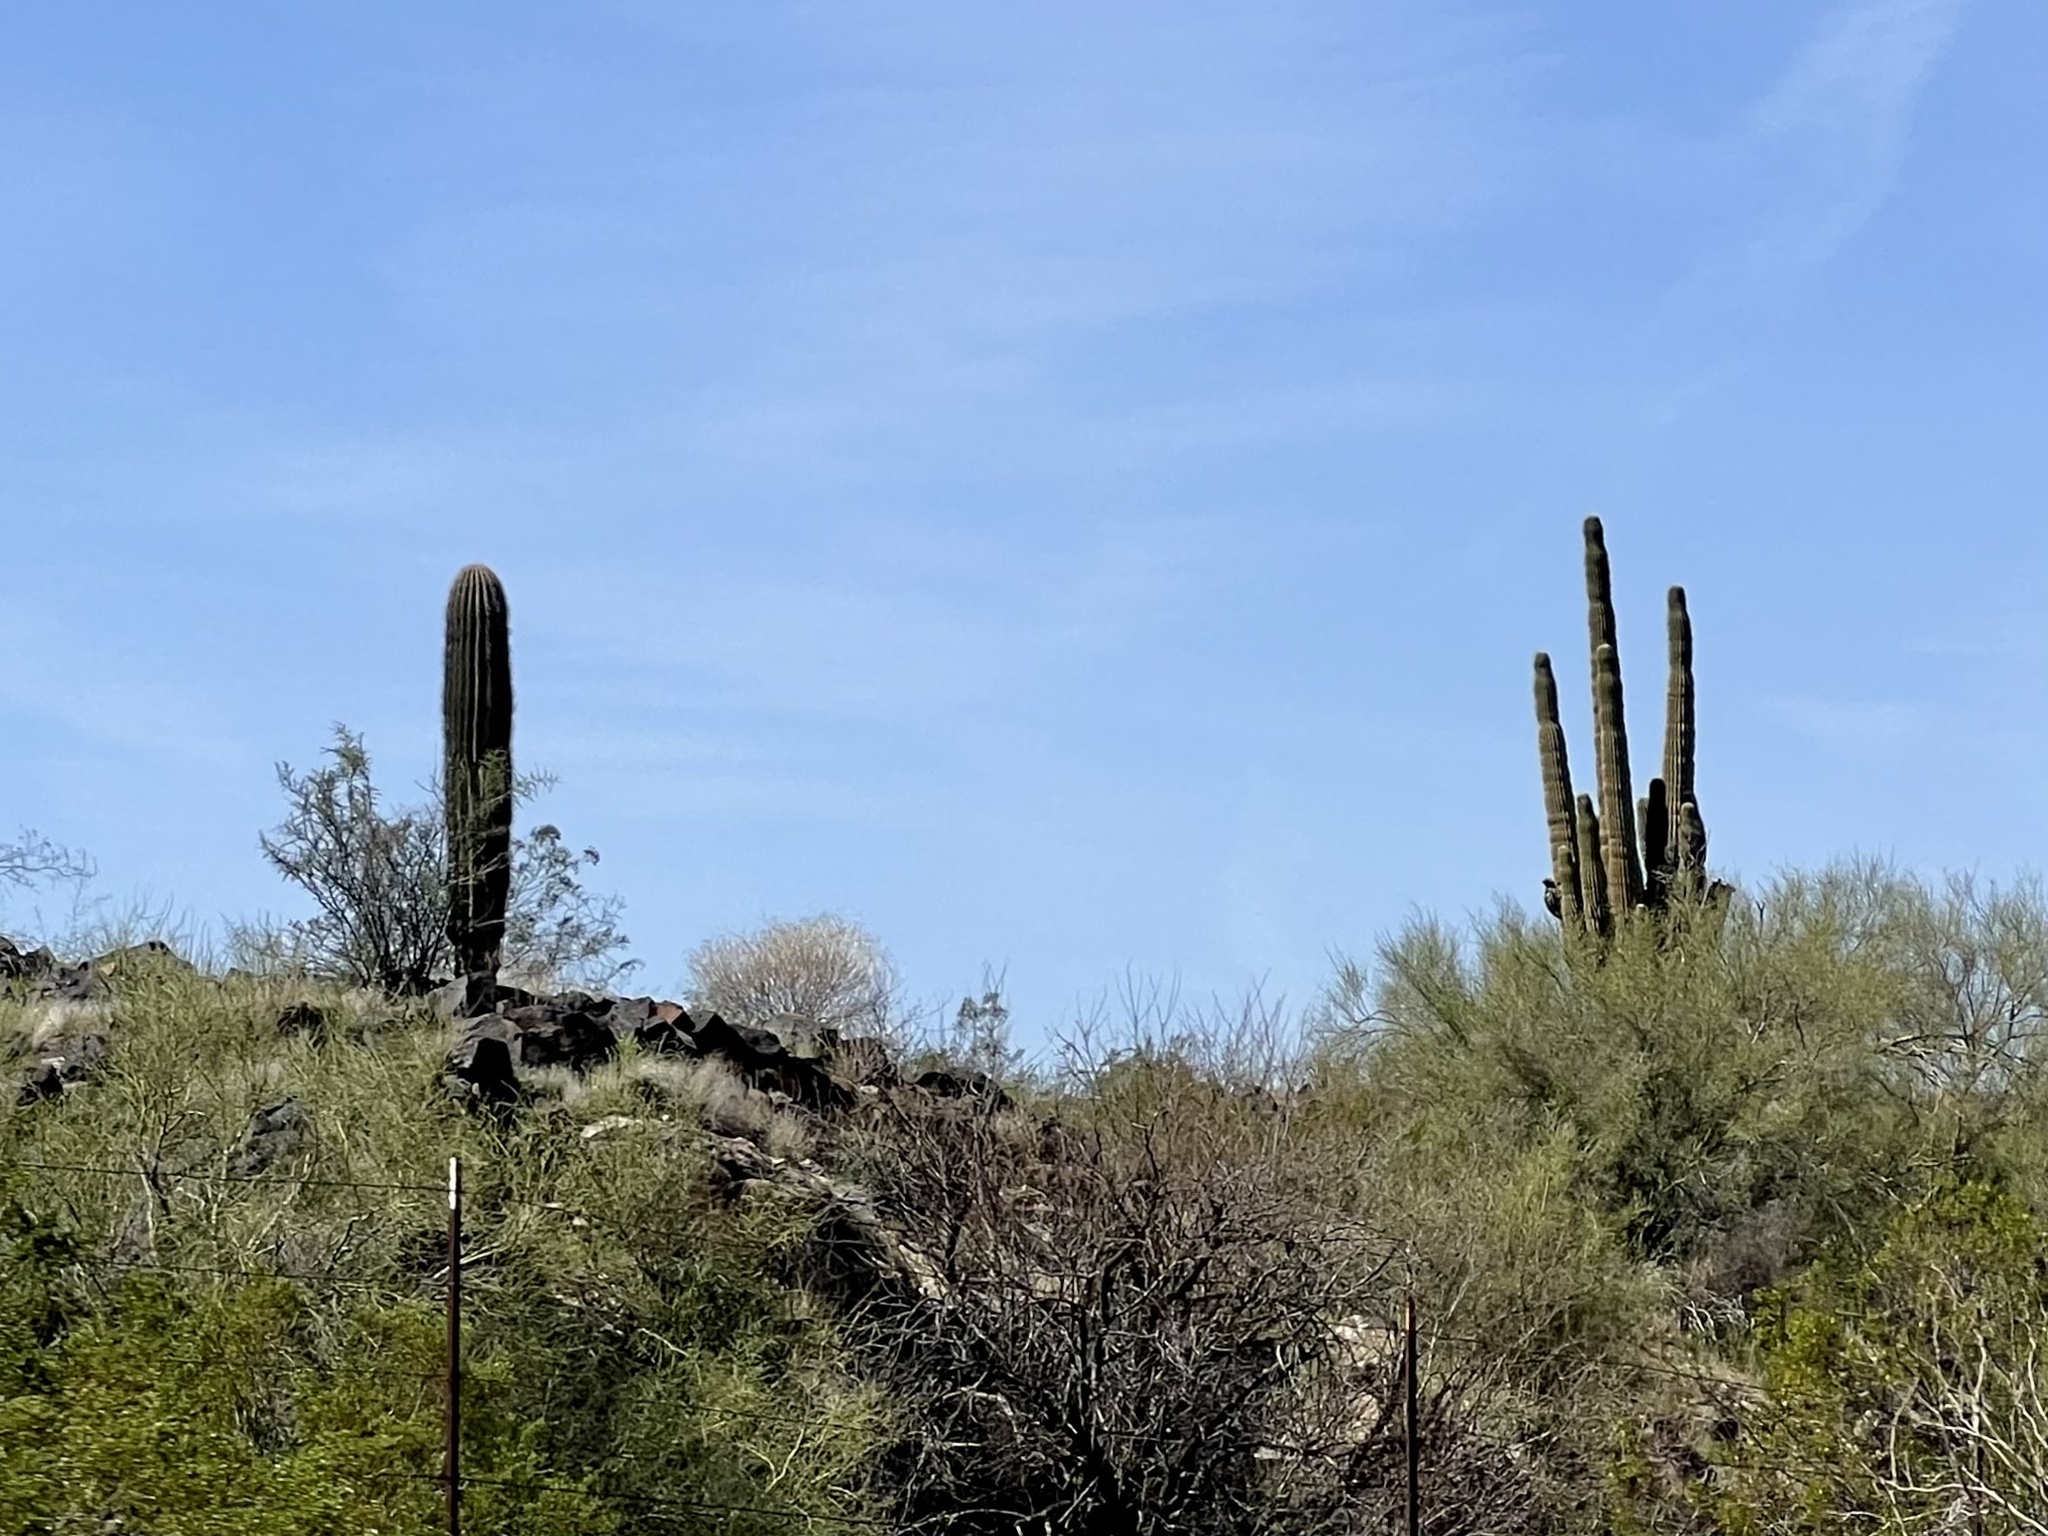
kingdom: Plantae
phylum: Tracheophyta
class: Magnoliopsida
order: Caryophyllales
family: Cactaceae
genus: Carnegiea
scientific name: Carnegiea gigantea
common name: Saguaro
